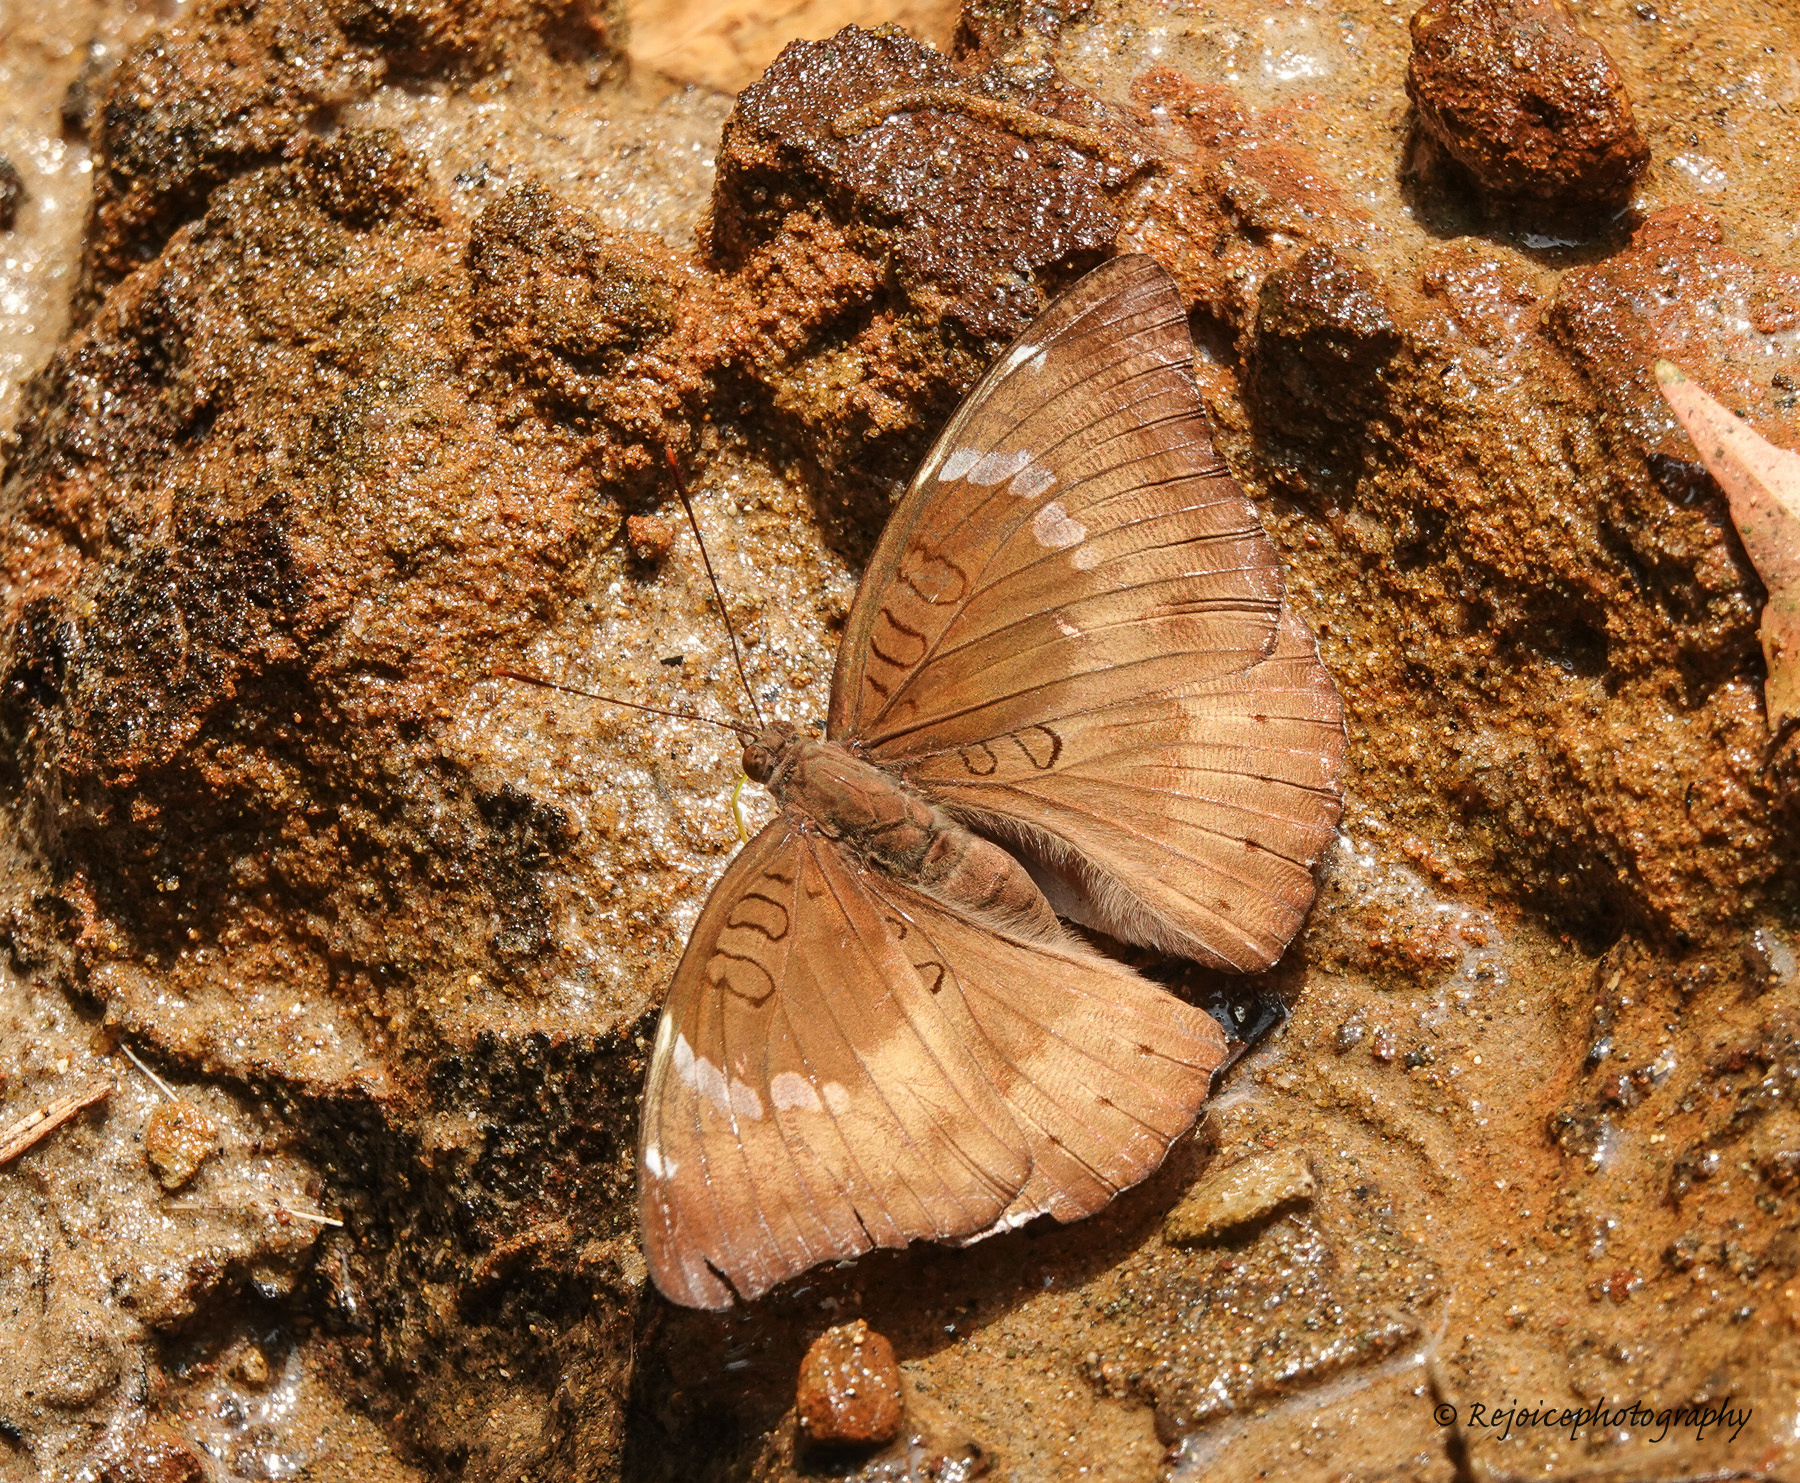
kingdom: Animalia
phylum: Arthropoda
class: Insecta
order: Lepidoptera
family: Nymphalidae
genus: Euthalia
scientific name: Euthalia aconthea
